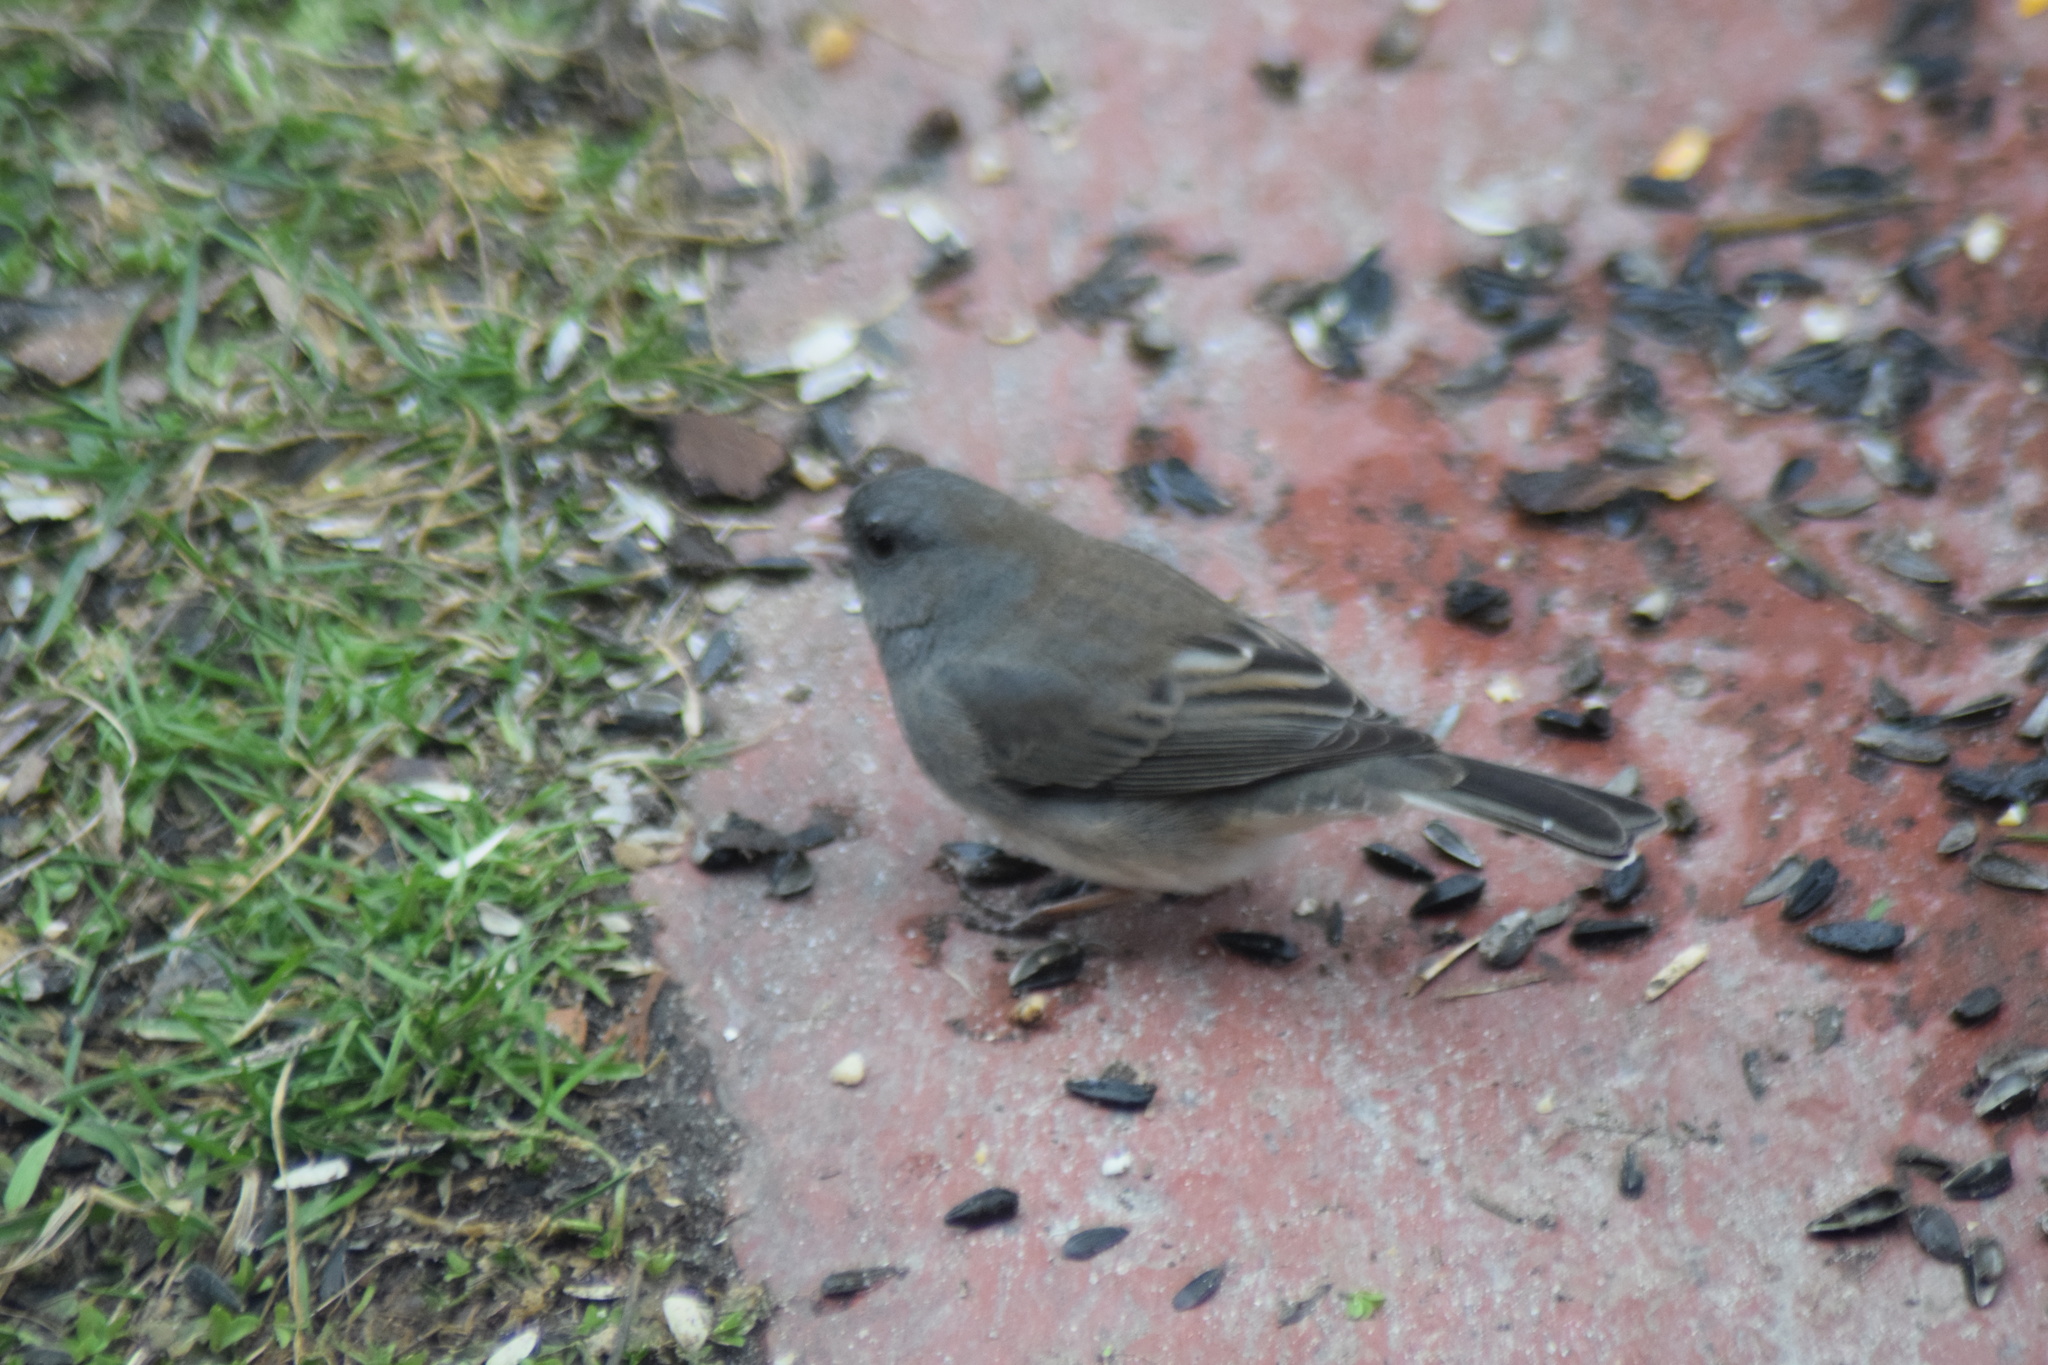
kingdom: Animalia
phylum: Chordata
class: Aves
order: Passeriformes
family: Passerellidae
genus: Junco
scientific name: Junco hyemalis
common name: Dark-eyed junco
